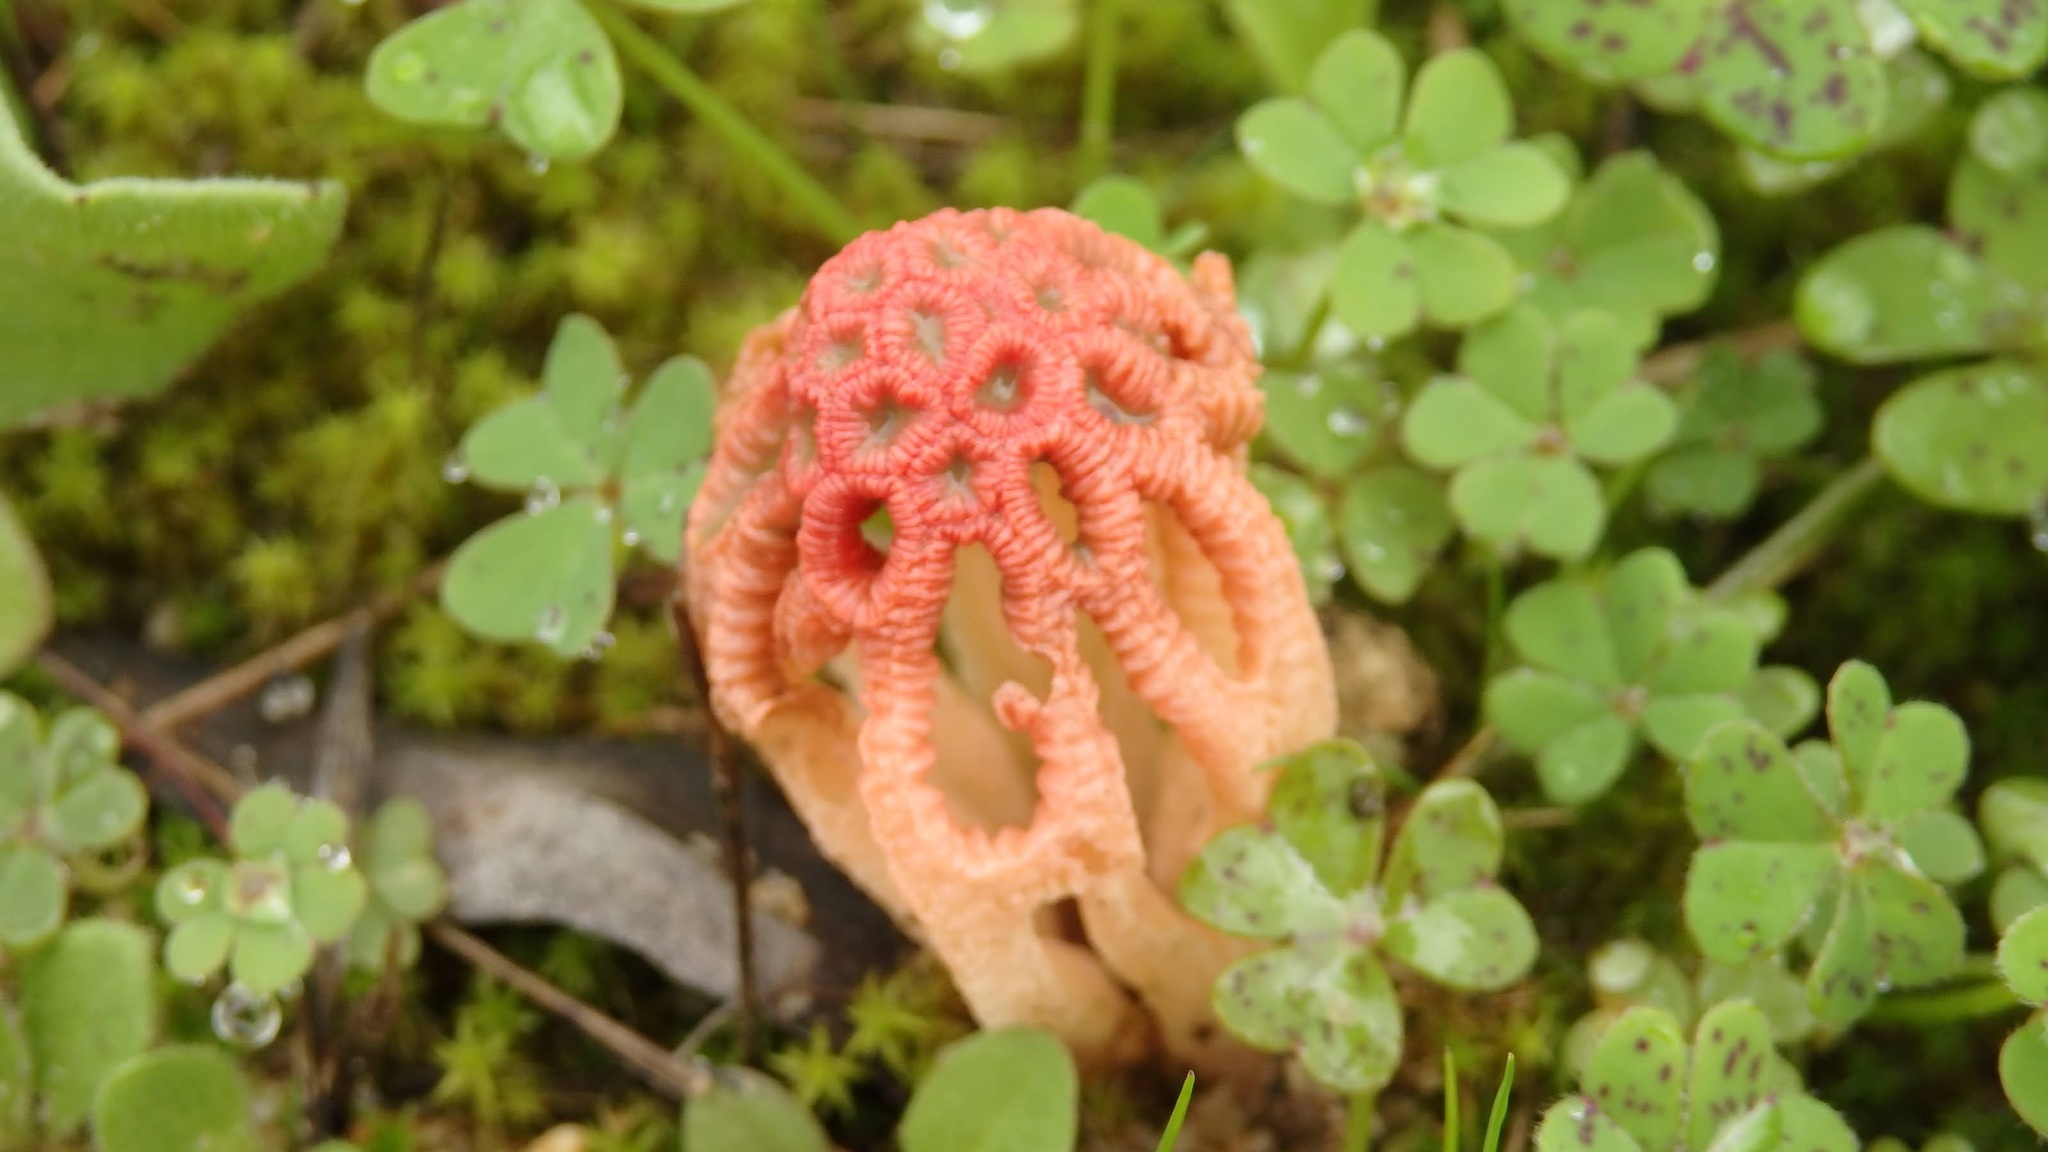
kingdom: Fungi
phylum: Basidiomycota
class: Agaricomycetes
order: Phallales
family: Phallaceae
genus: Colus
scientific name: Colus hirudinosus
